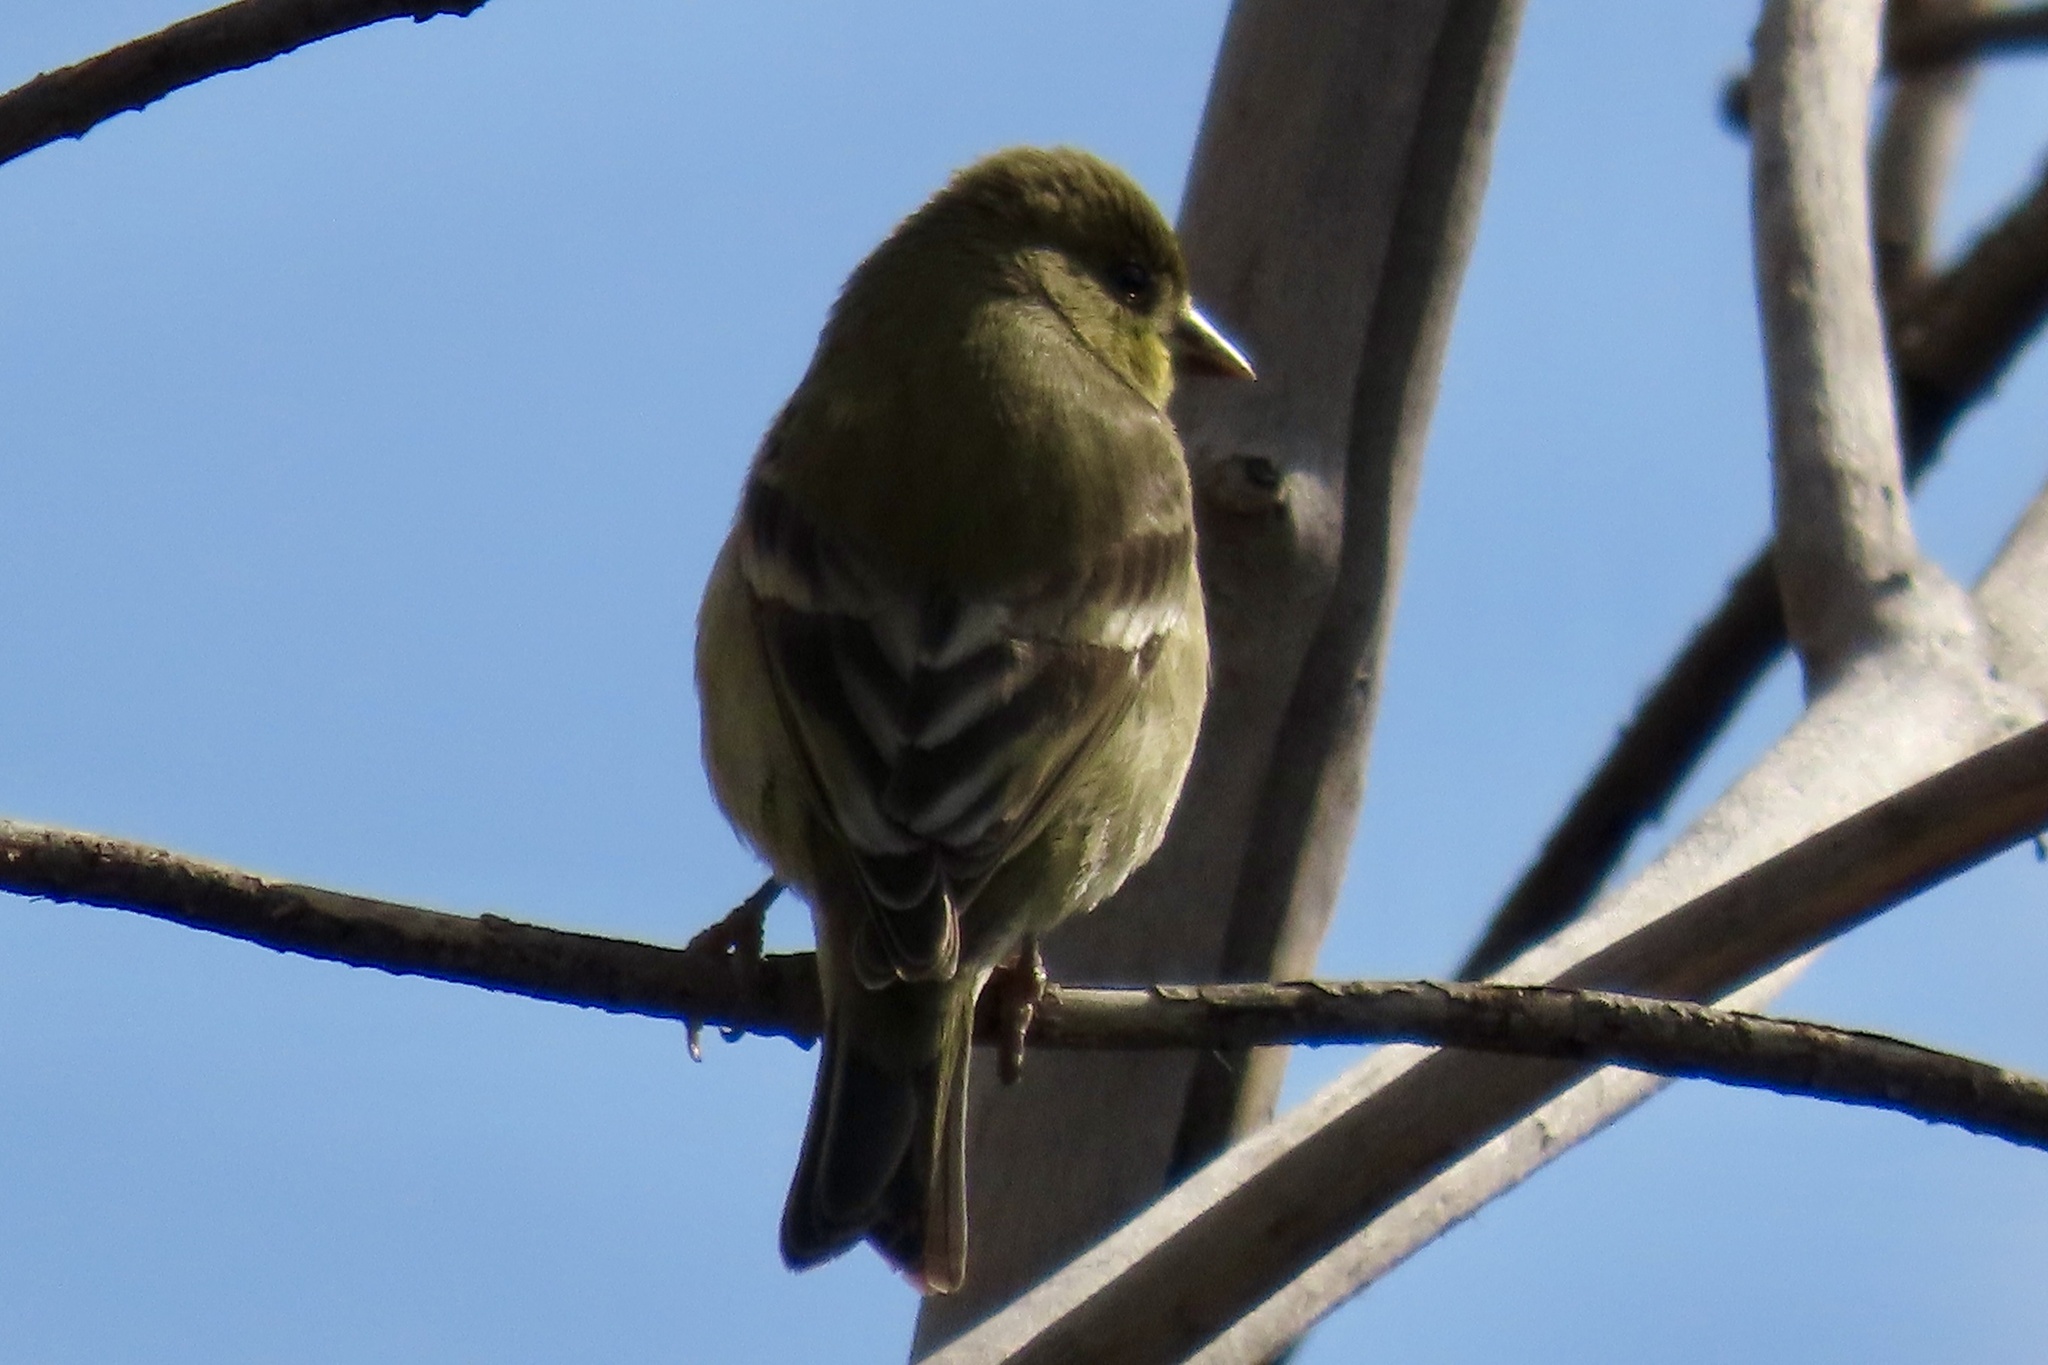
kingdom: Animalia
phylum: Chordata
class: Aves
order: Passeriformes
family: Fringillidae
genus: Spinus
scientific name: Spinus psaltria
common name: Lesser goldfinch
